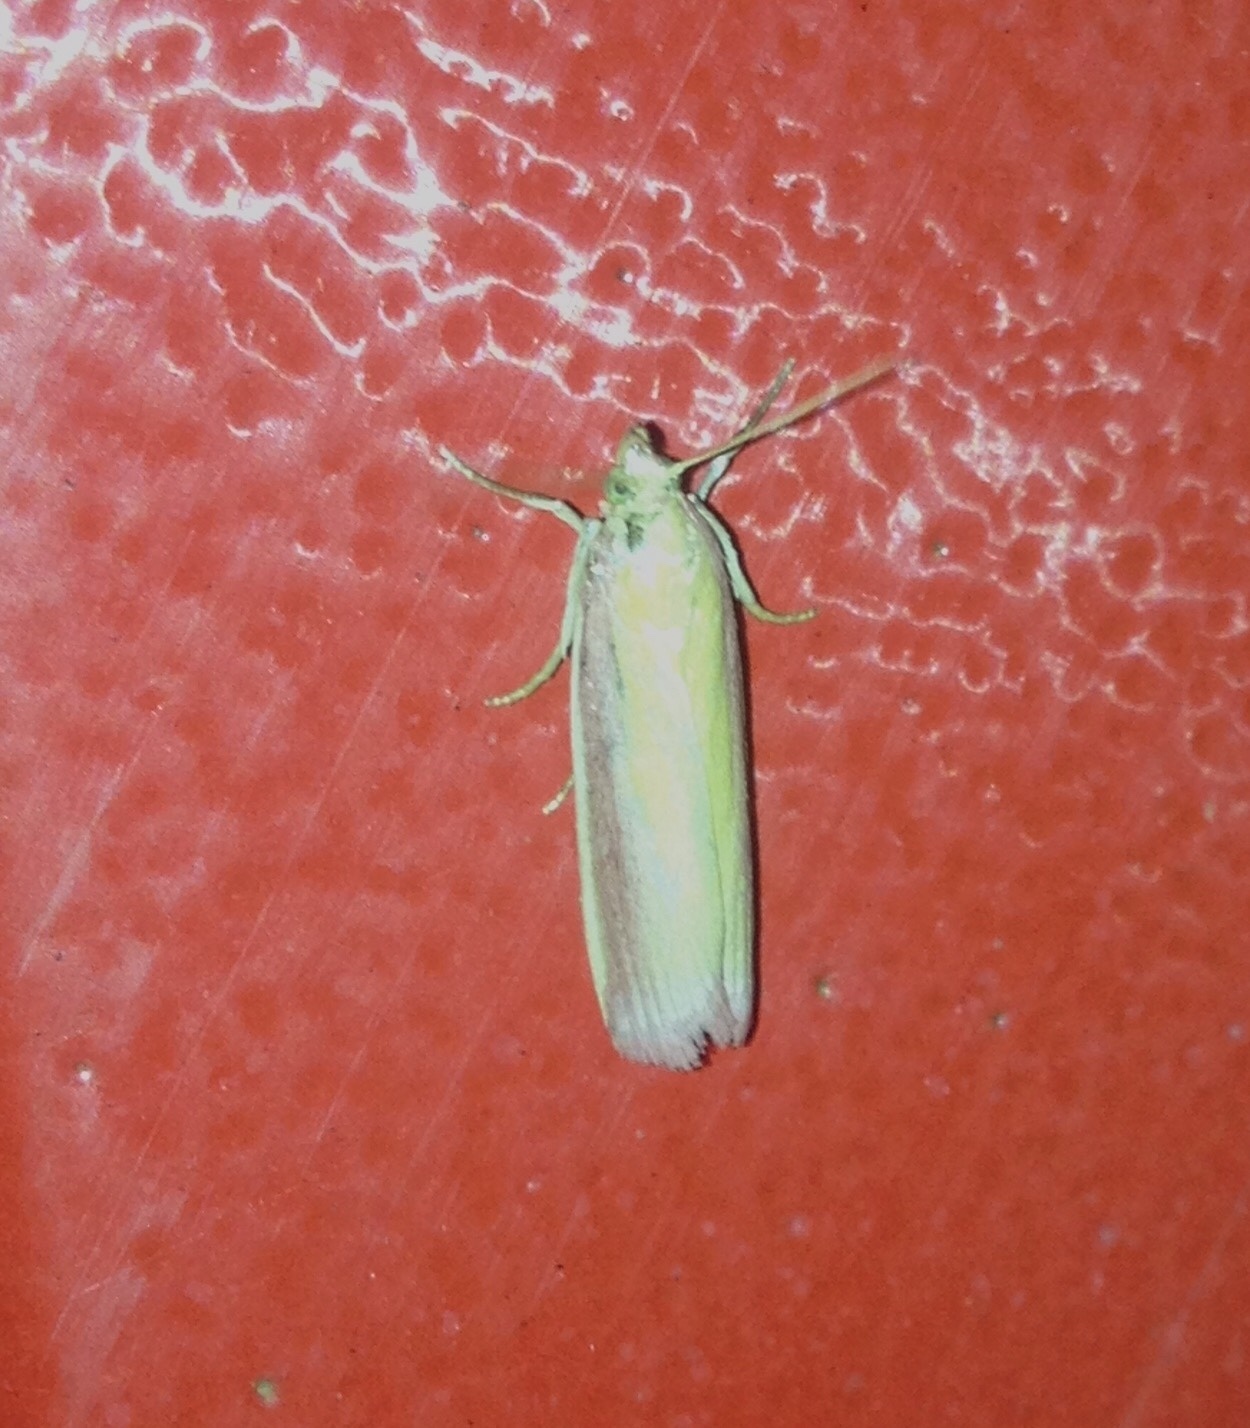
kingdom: Animalia
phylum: Arthropoda
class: Insecta
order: Lepidoptera
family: Pyralidae
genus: Oncocera
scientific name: Oncocera semirubella
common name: Rosy-striped knot-horn
